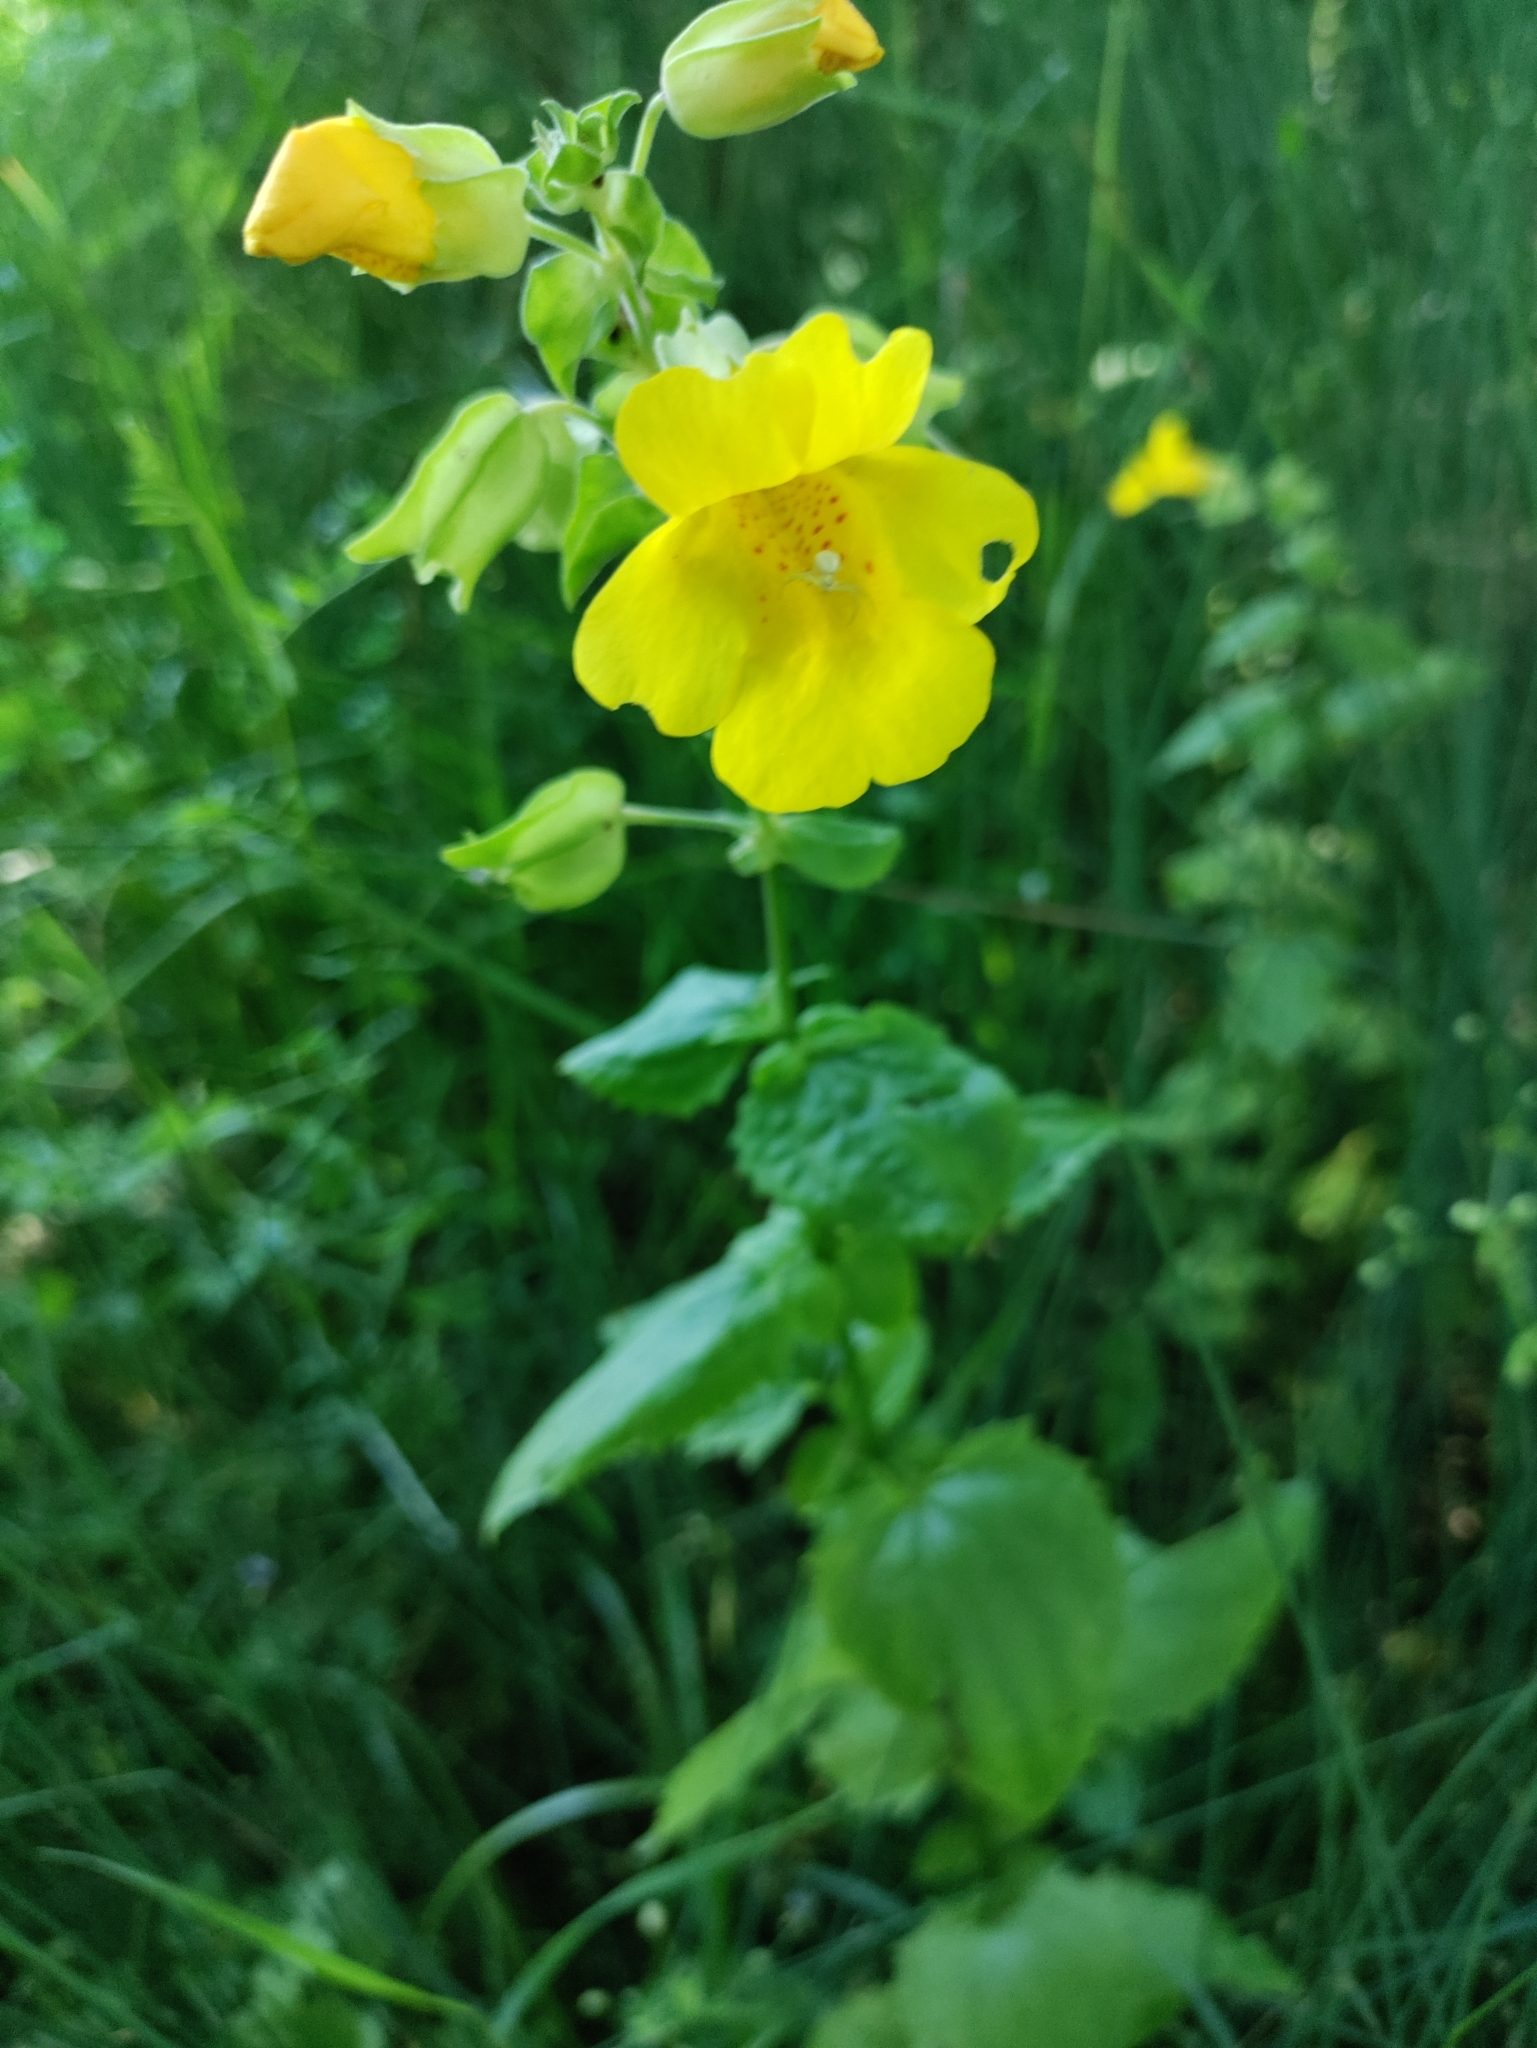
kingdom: Plantae
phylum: Tracheophyta
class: Magnoliopsida
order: Lamiales
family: Phrymaceae
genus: Erythranthe
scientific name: Erythranthe decora
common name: Mannered monkeyflower
